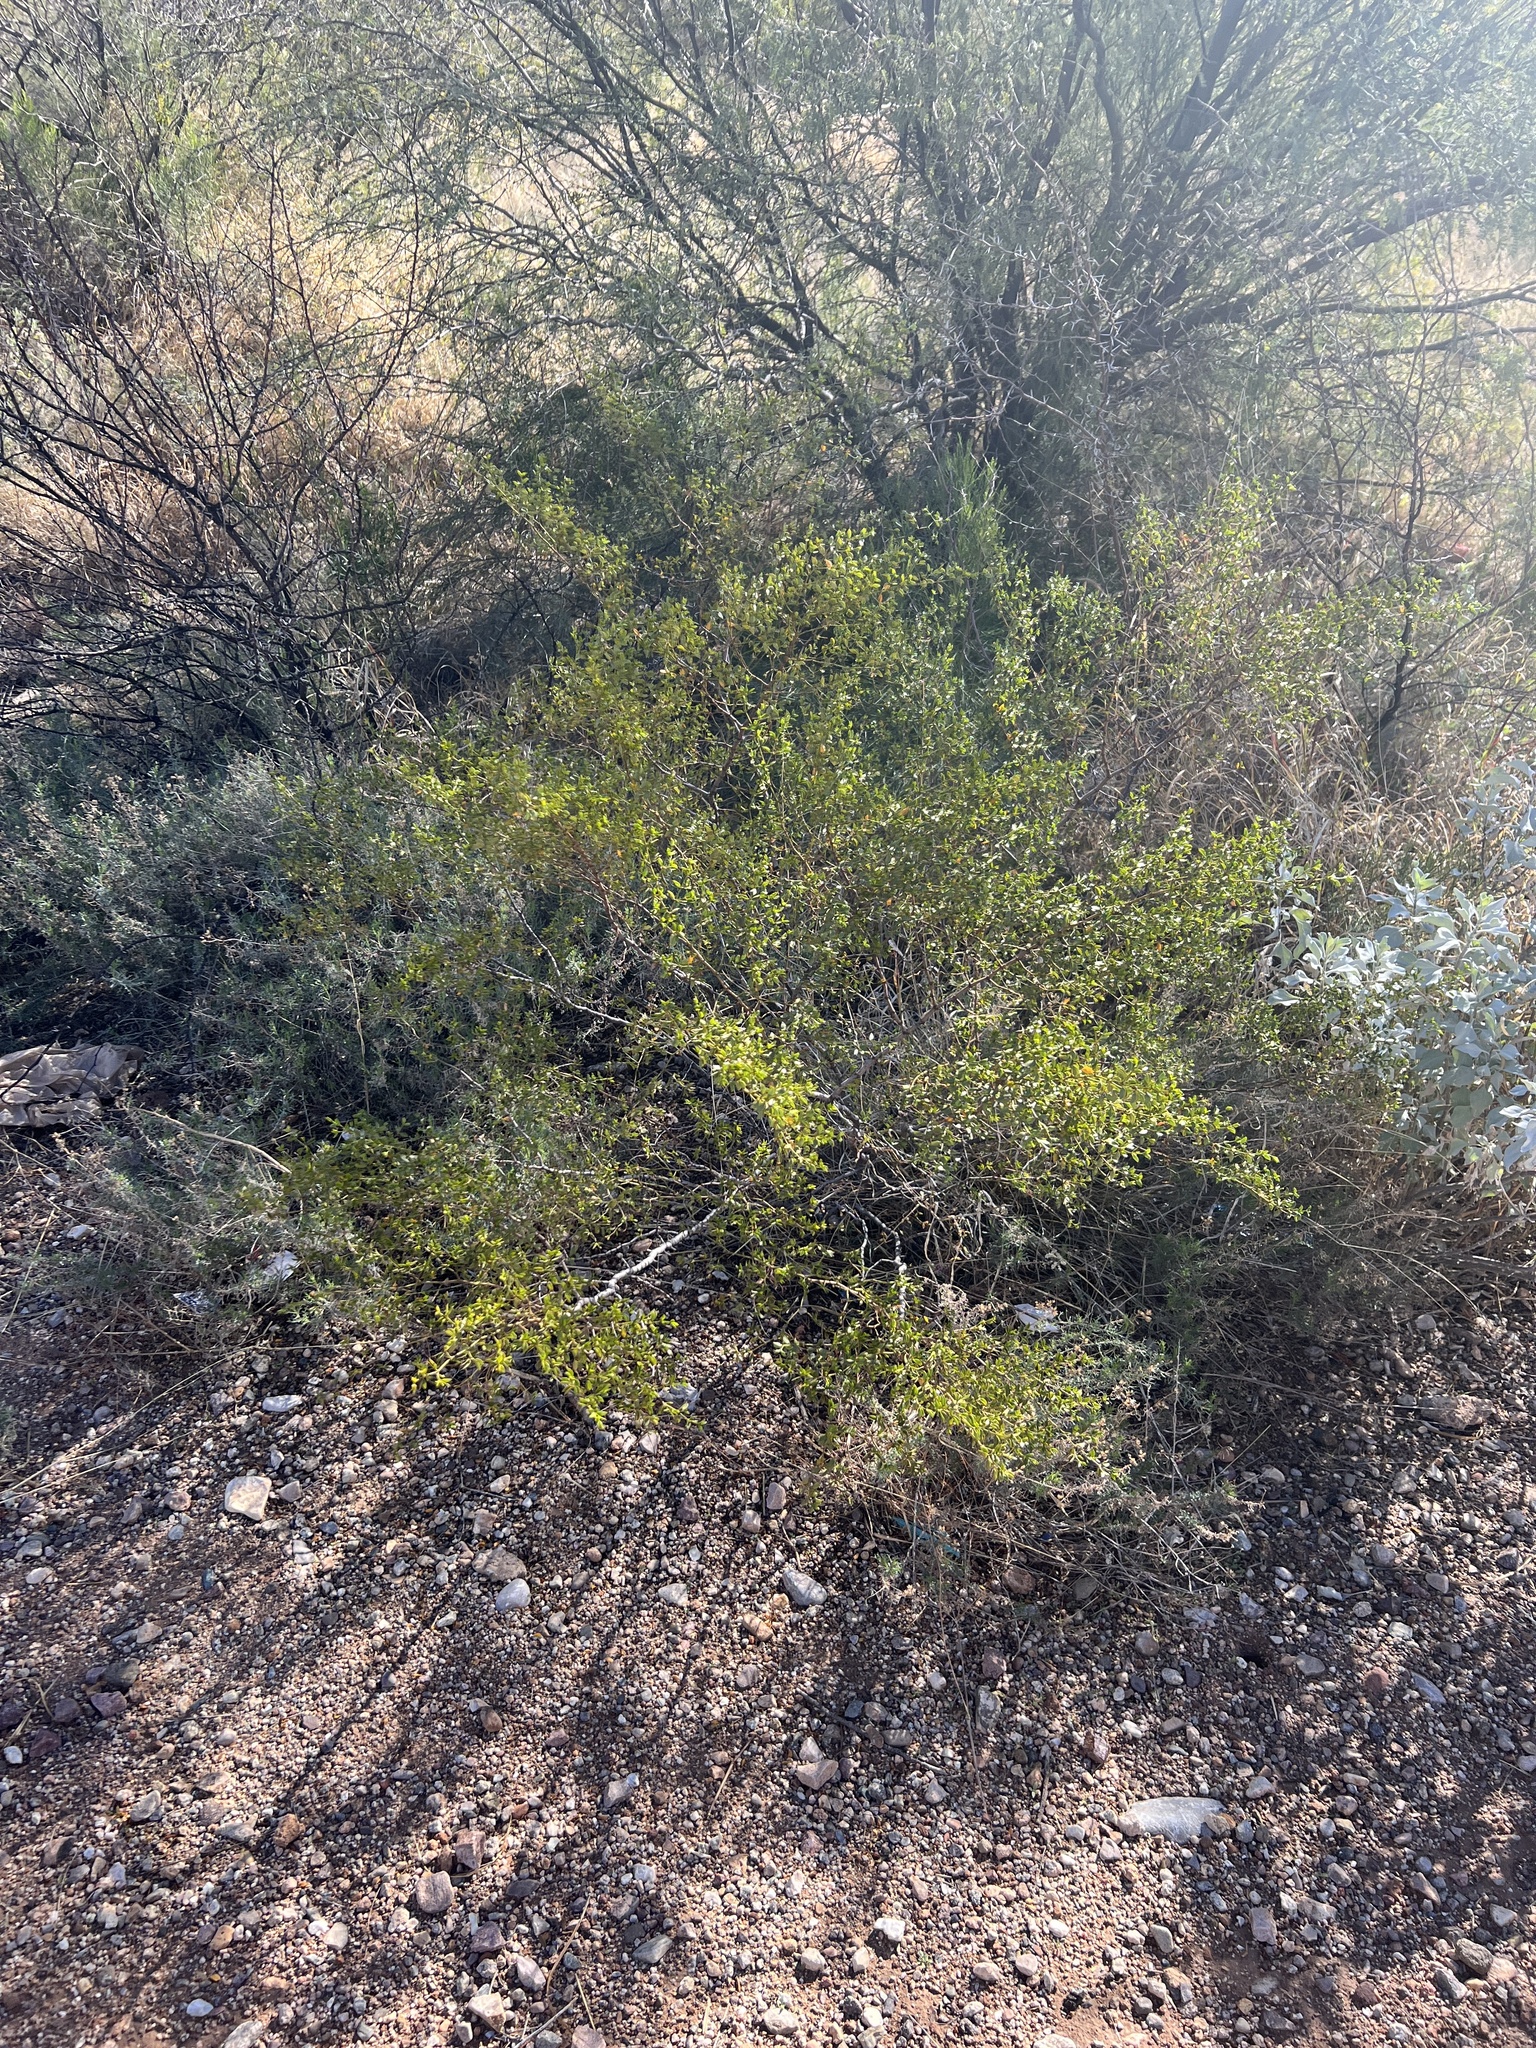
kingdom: Plantae
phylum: Tracheophyta
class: Magnoliopsida
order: Zygophyllales
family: Zygophyllaceae
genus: Larrea
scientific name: Larrea tridentata
